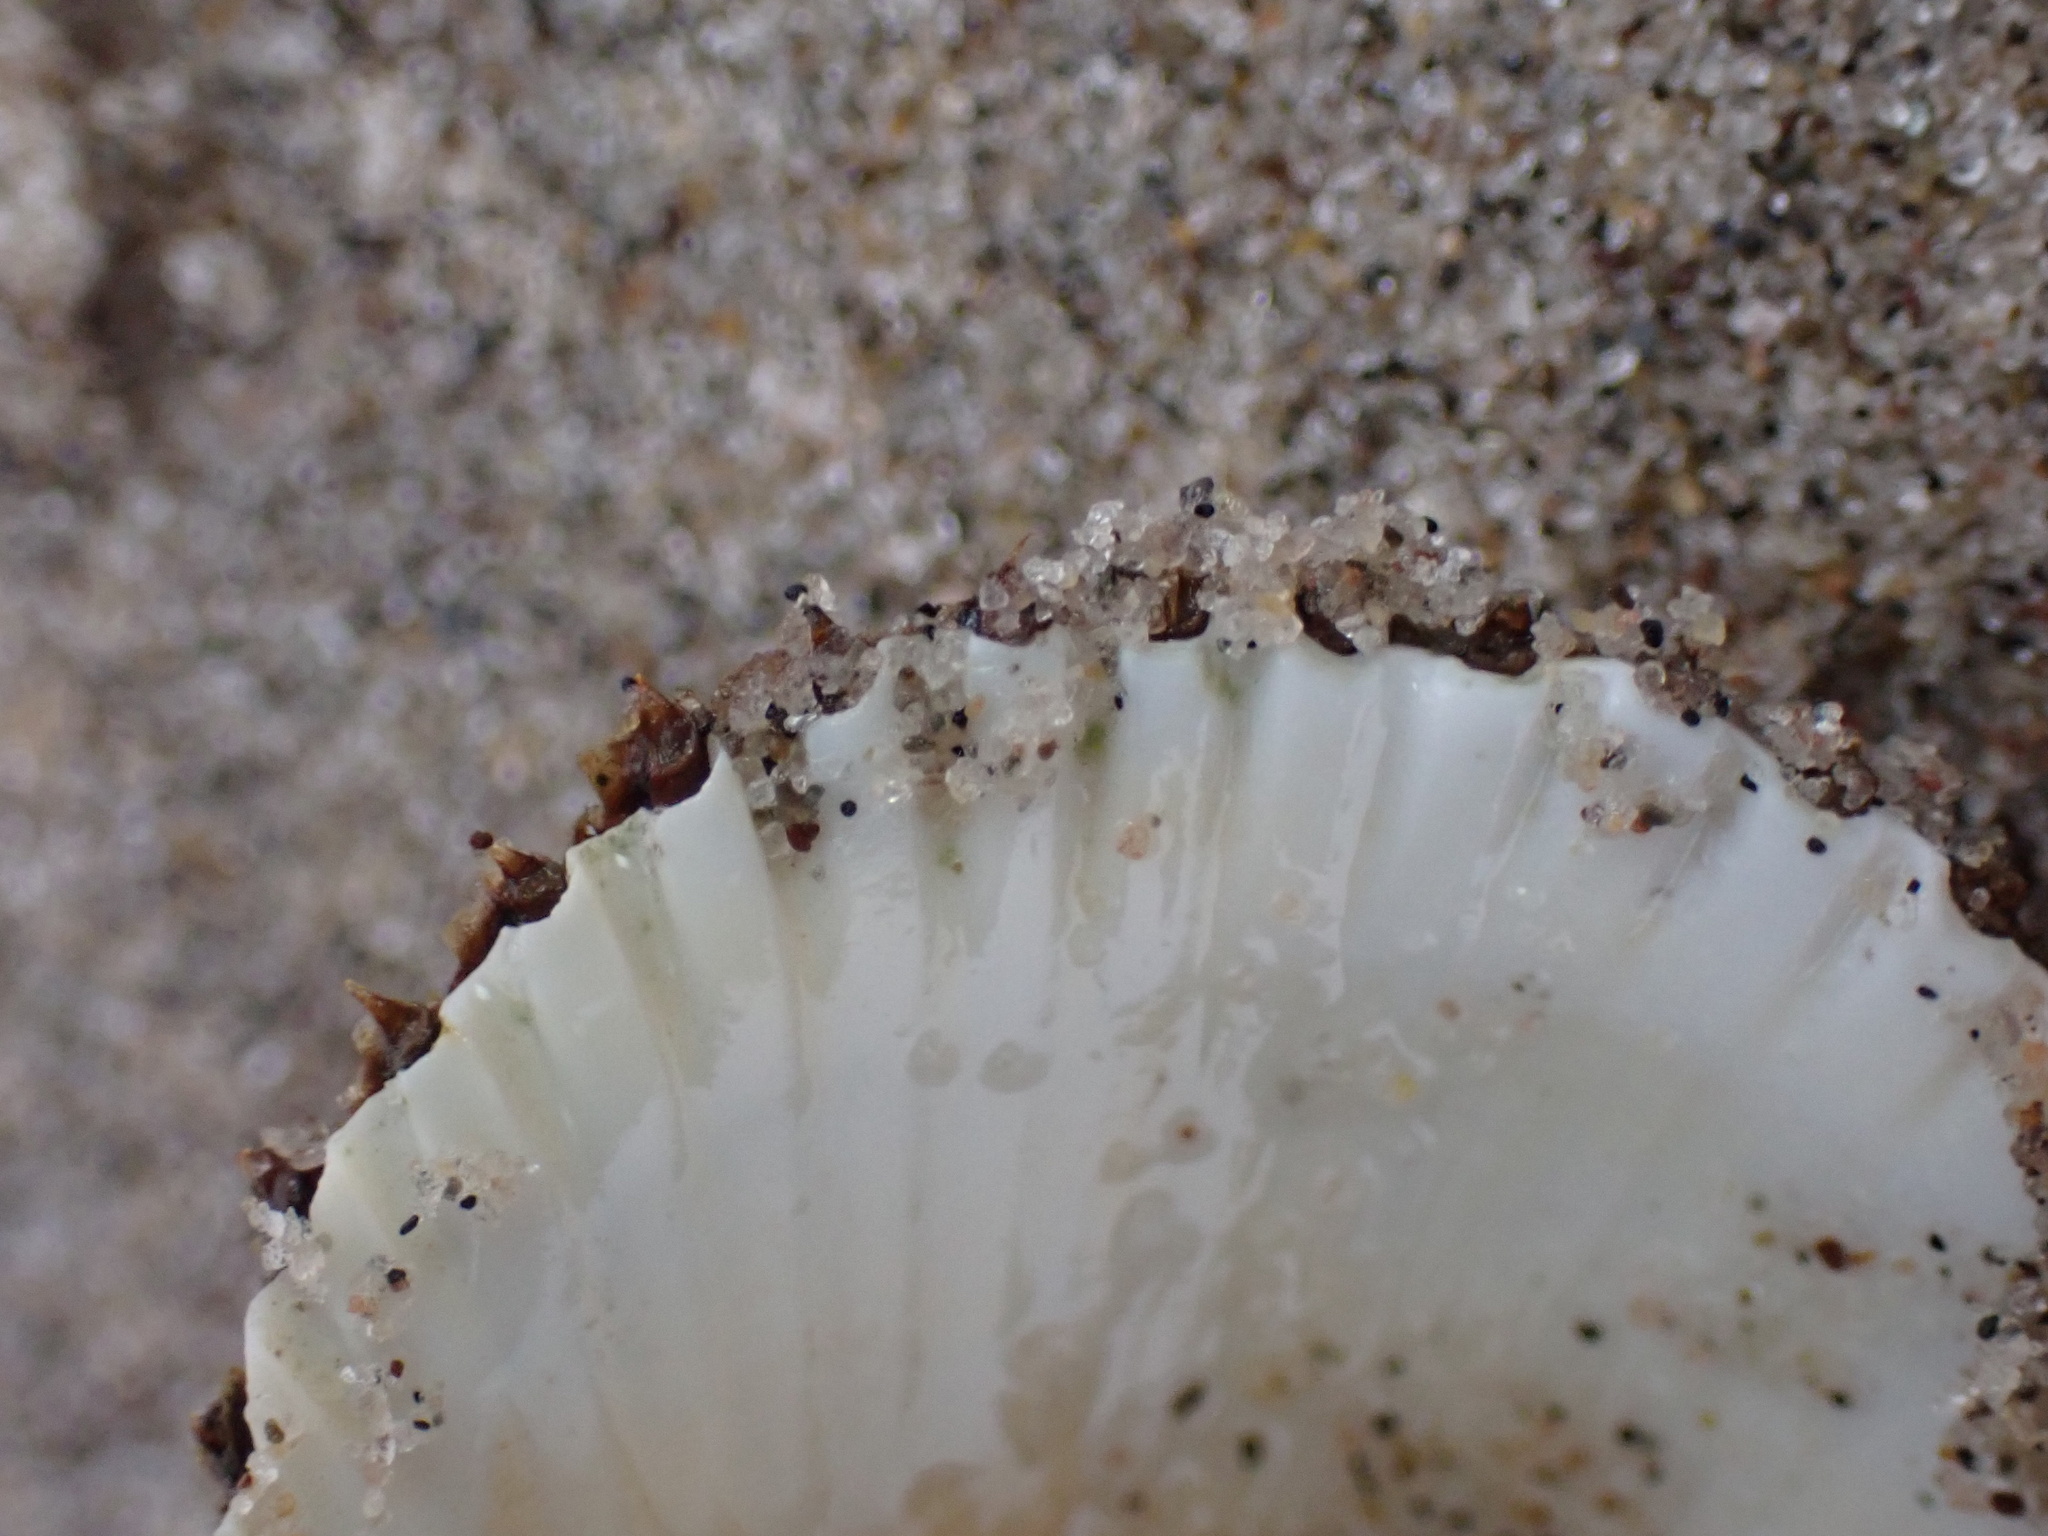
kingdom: Animalia
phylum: Mollusca
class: Bivalvia
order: Arcida
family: Arcidae
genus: Lunarca
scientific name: Lunarca ovalis
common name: Blood ark
